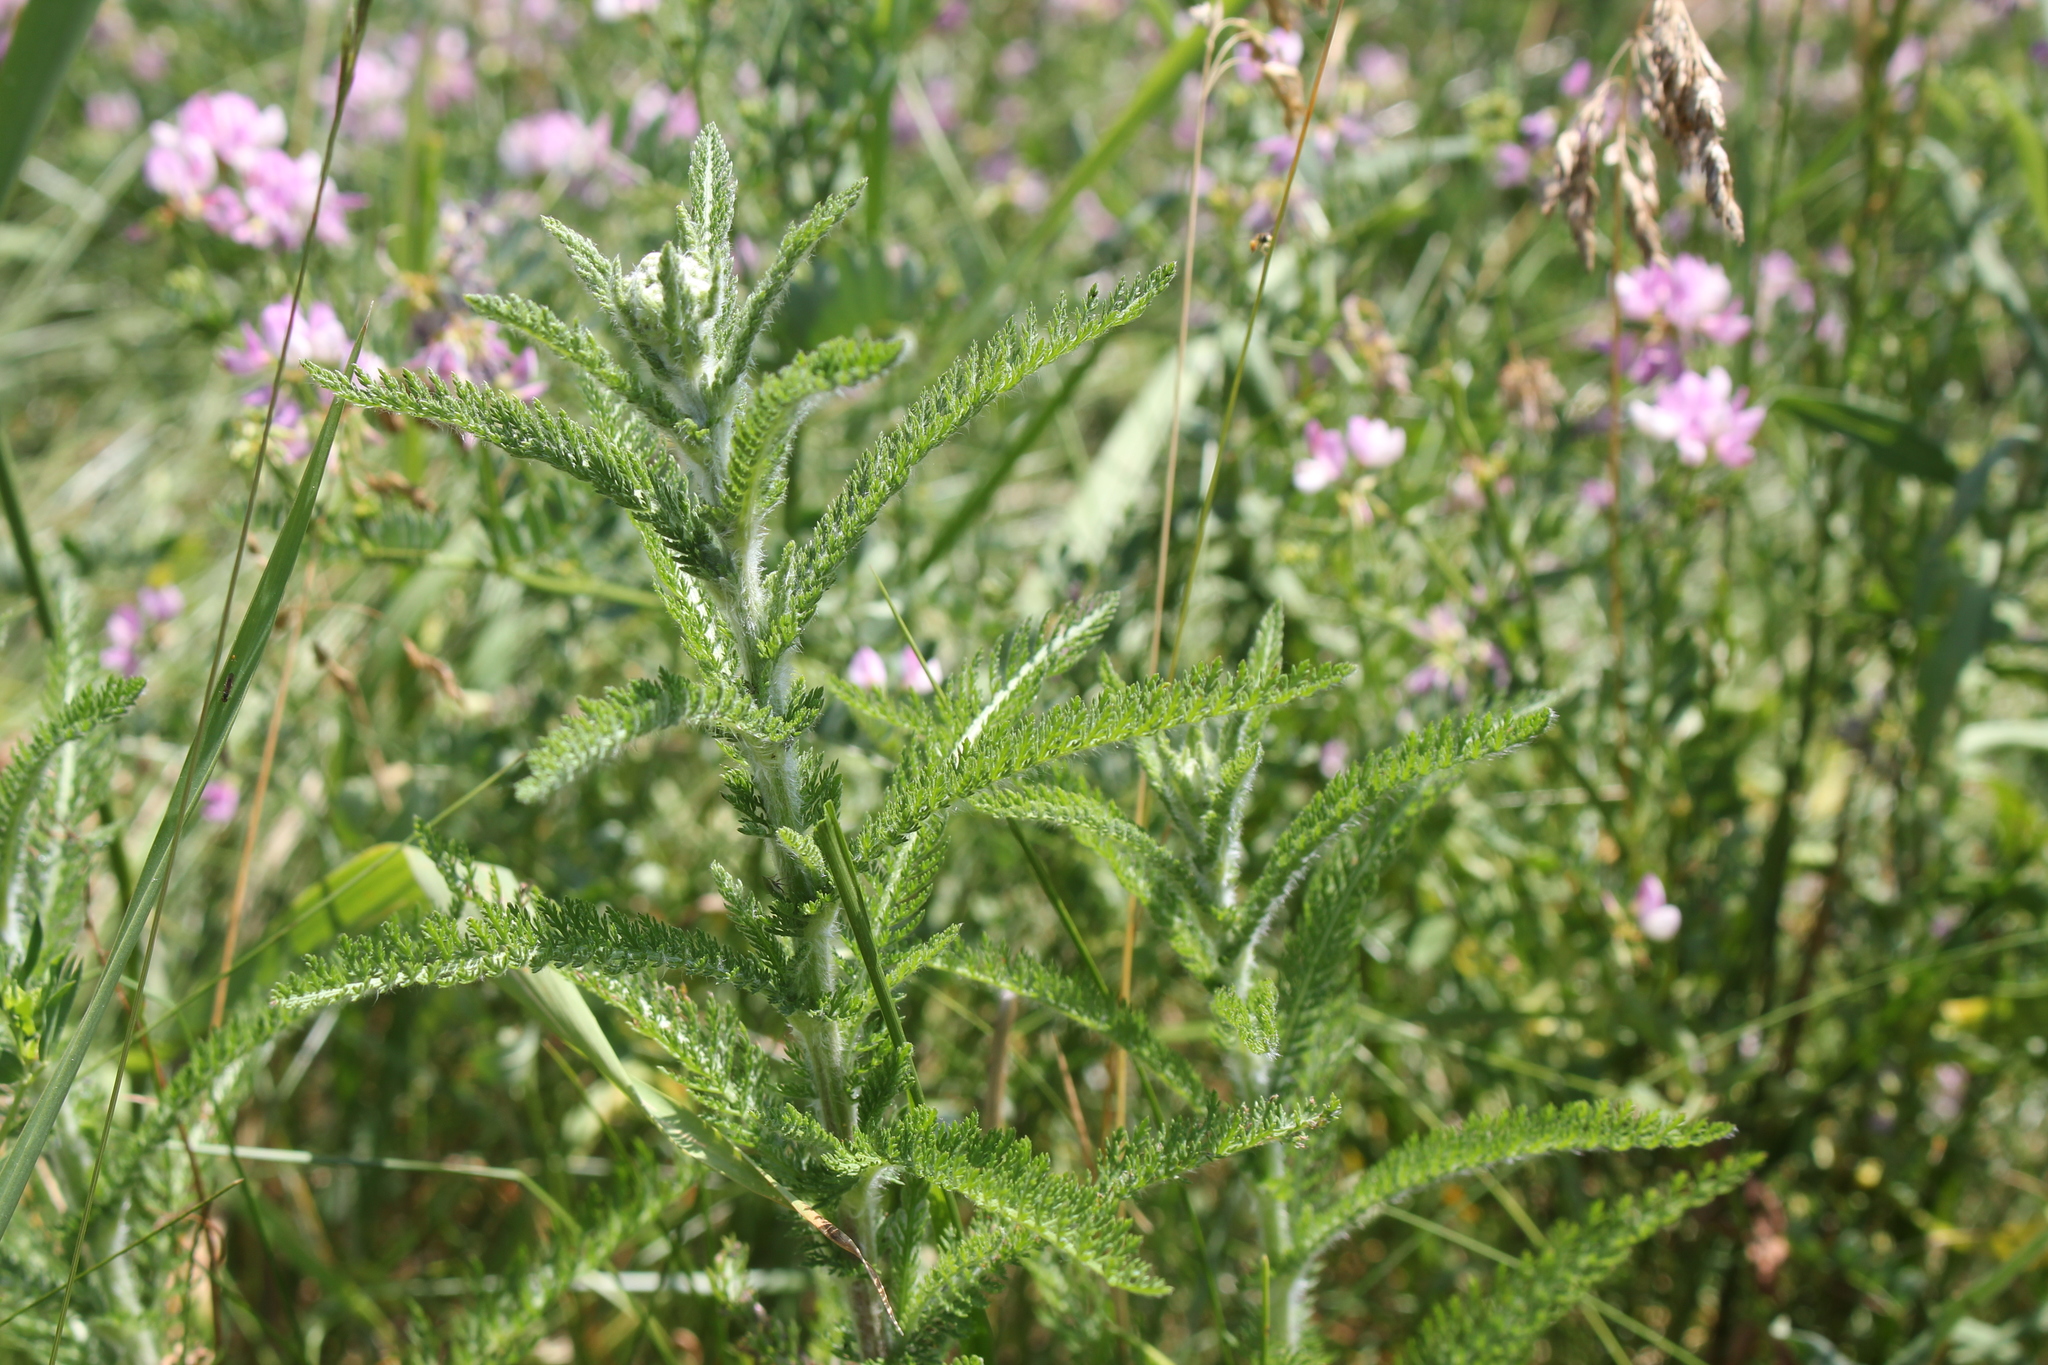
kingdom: Plantae
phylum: Tracheophyta
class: Magnoliopsida
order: Asterales
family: Asteraceae
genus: Achillea
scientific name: Achillea millefolium
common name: Yarrow
